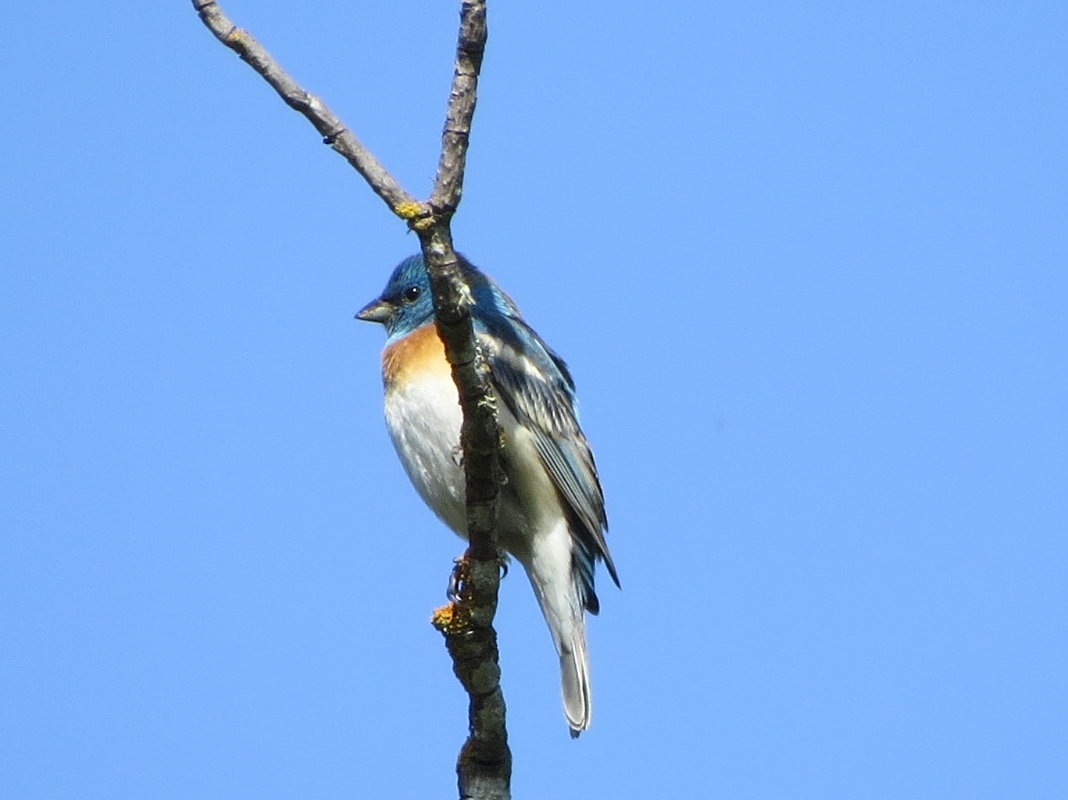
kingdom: Animalia
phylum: Chordata
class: Aves
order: Passeriformes
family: Cardinalidae
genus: Passerina
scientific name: Passerina amoena
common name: Lazuli bunting
